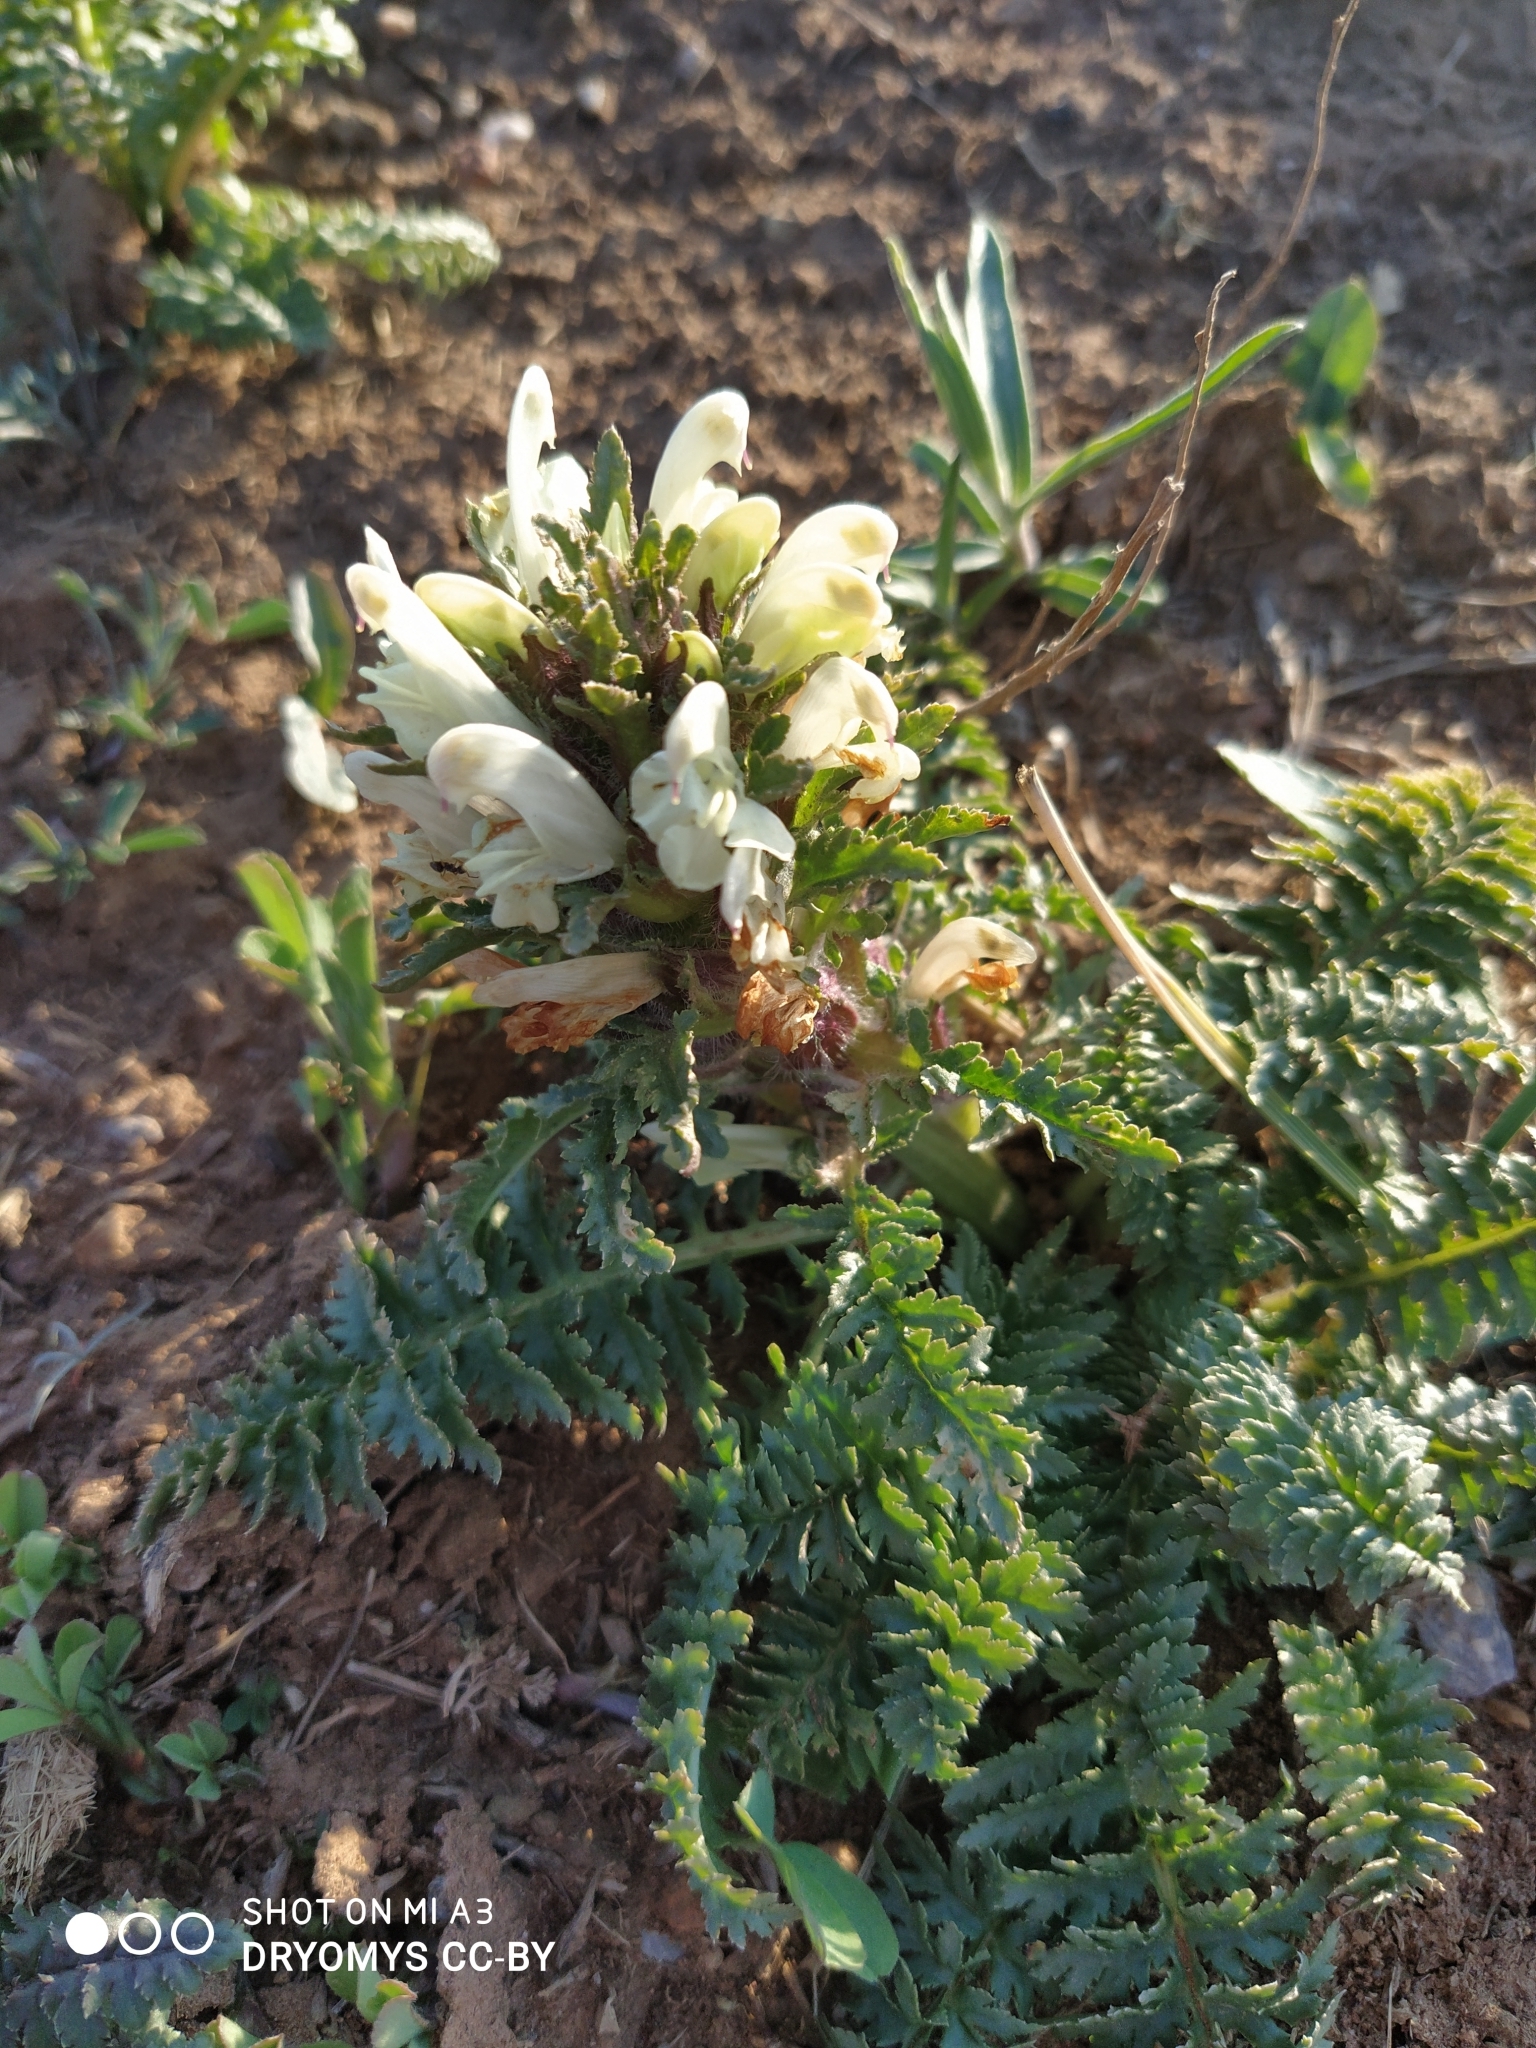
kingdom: Plantae
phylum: Tracheophyta
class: Magnoliopsida
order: Lamiales
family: Orobanchaceae
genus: Pedicularis
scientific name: Pedicularis physocalyx
